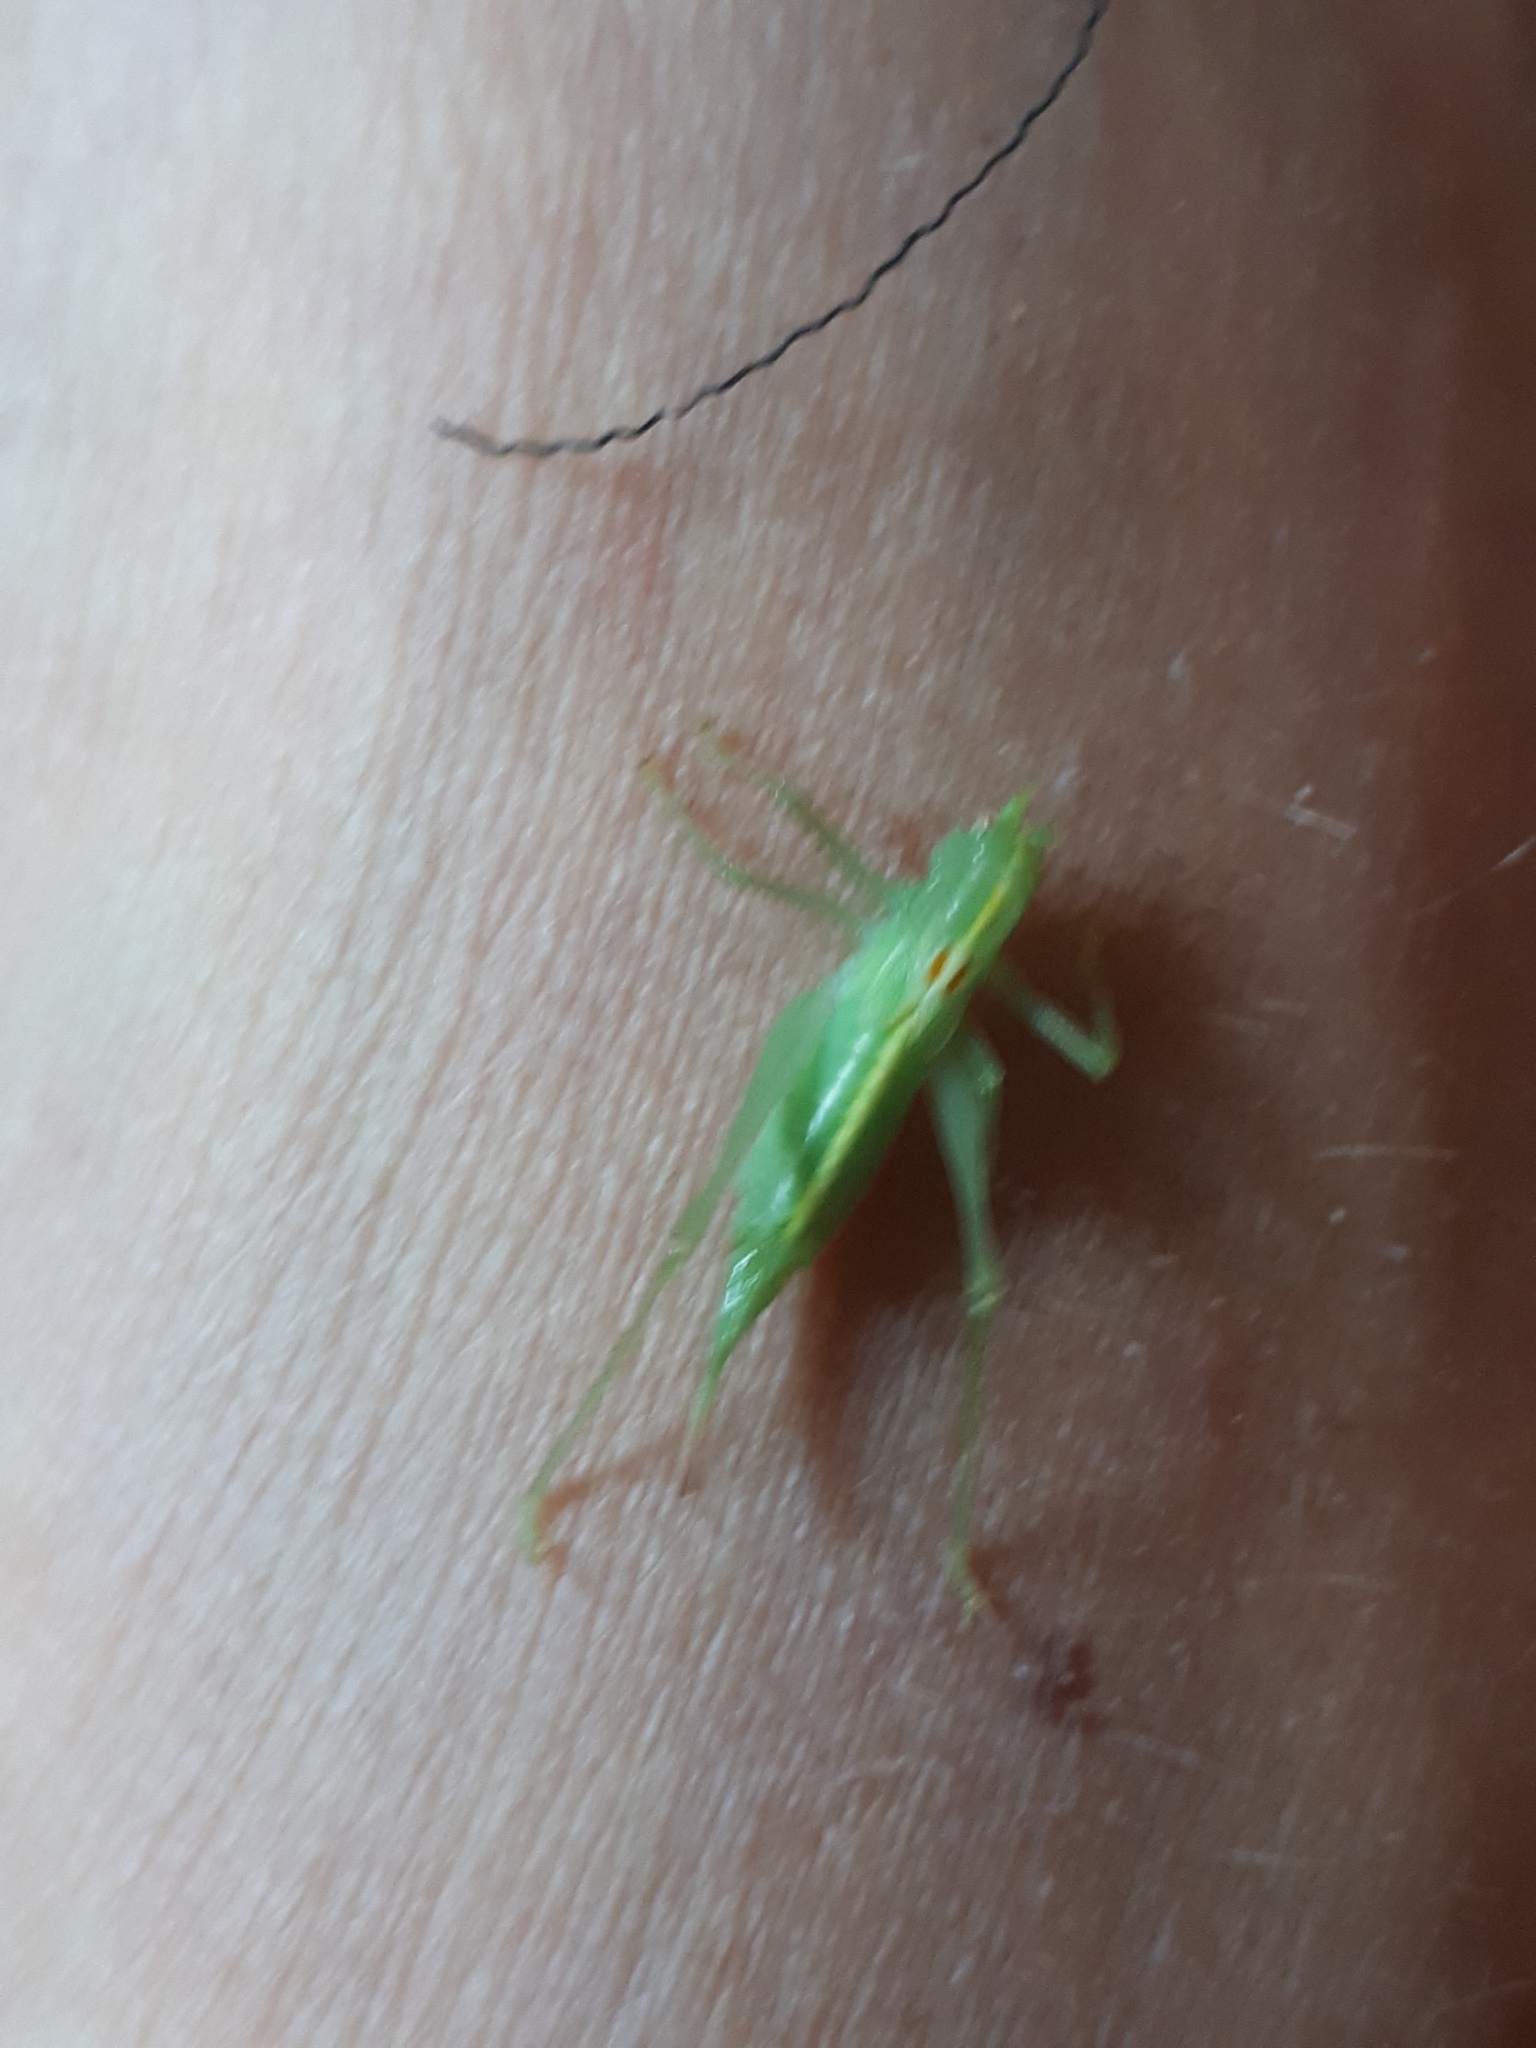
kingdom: Animalia
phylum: Arthropoda
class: Insecta
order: Orthoptera
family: Tettigoniidae
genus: Meconema
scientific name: Meconema meridionale
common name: Southern oak bush-cricket
